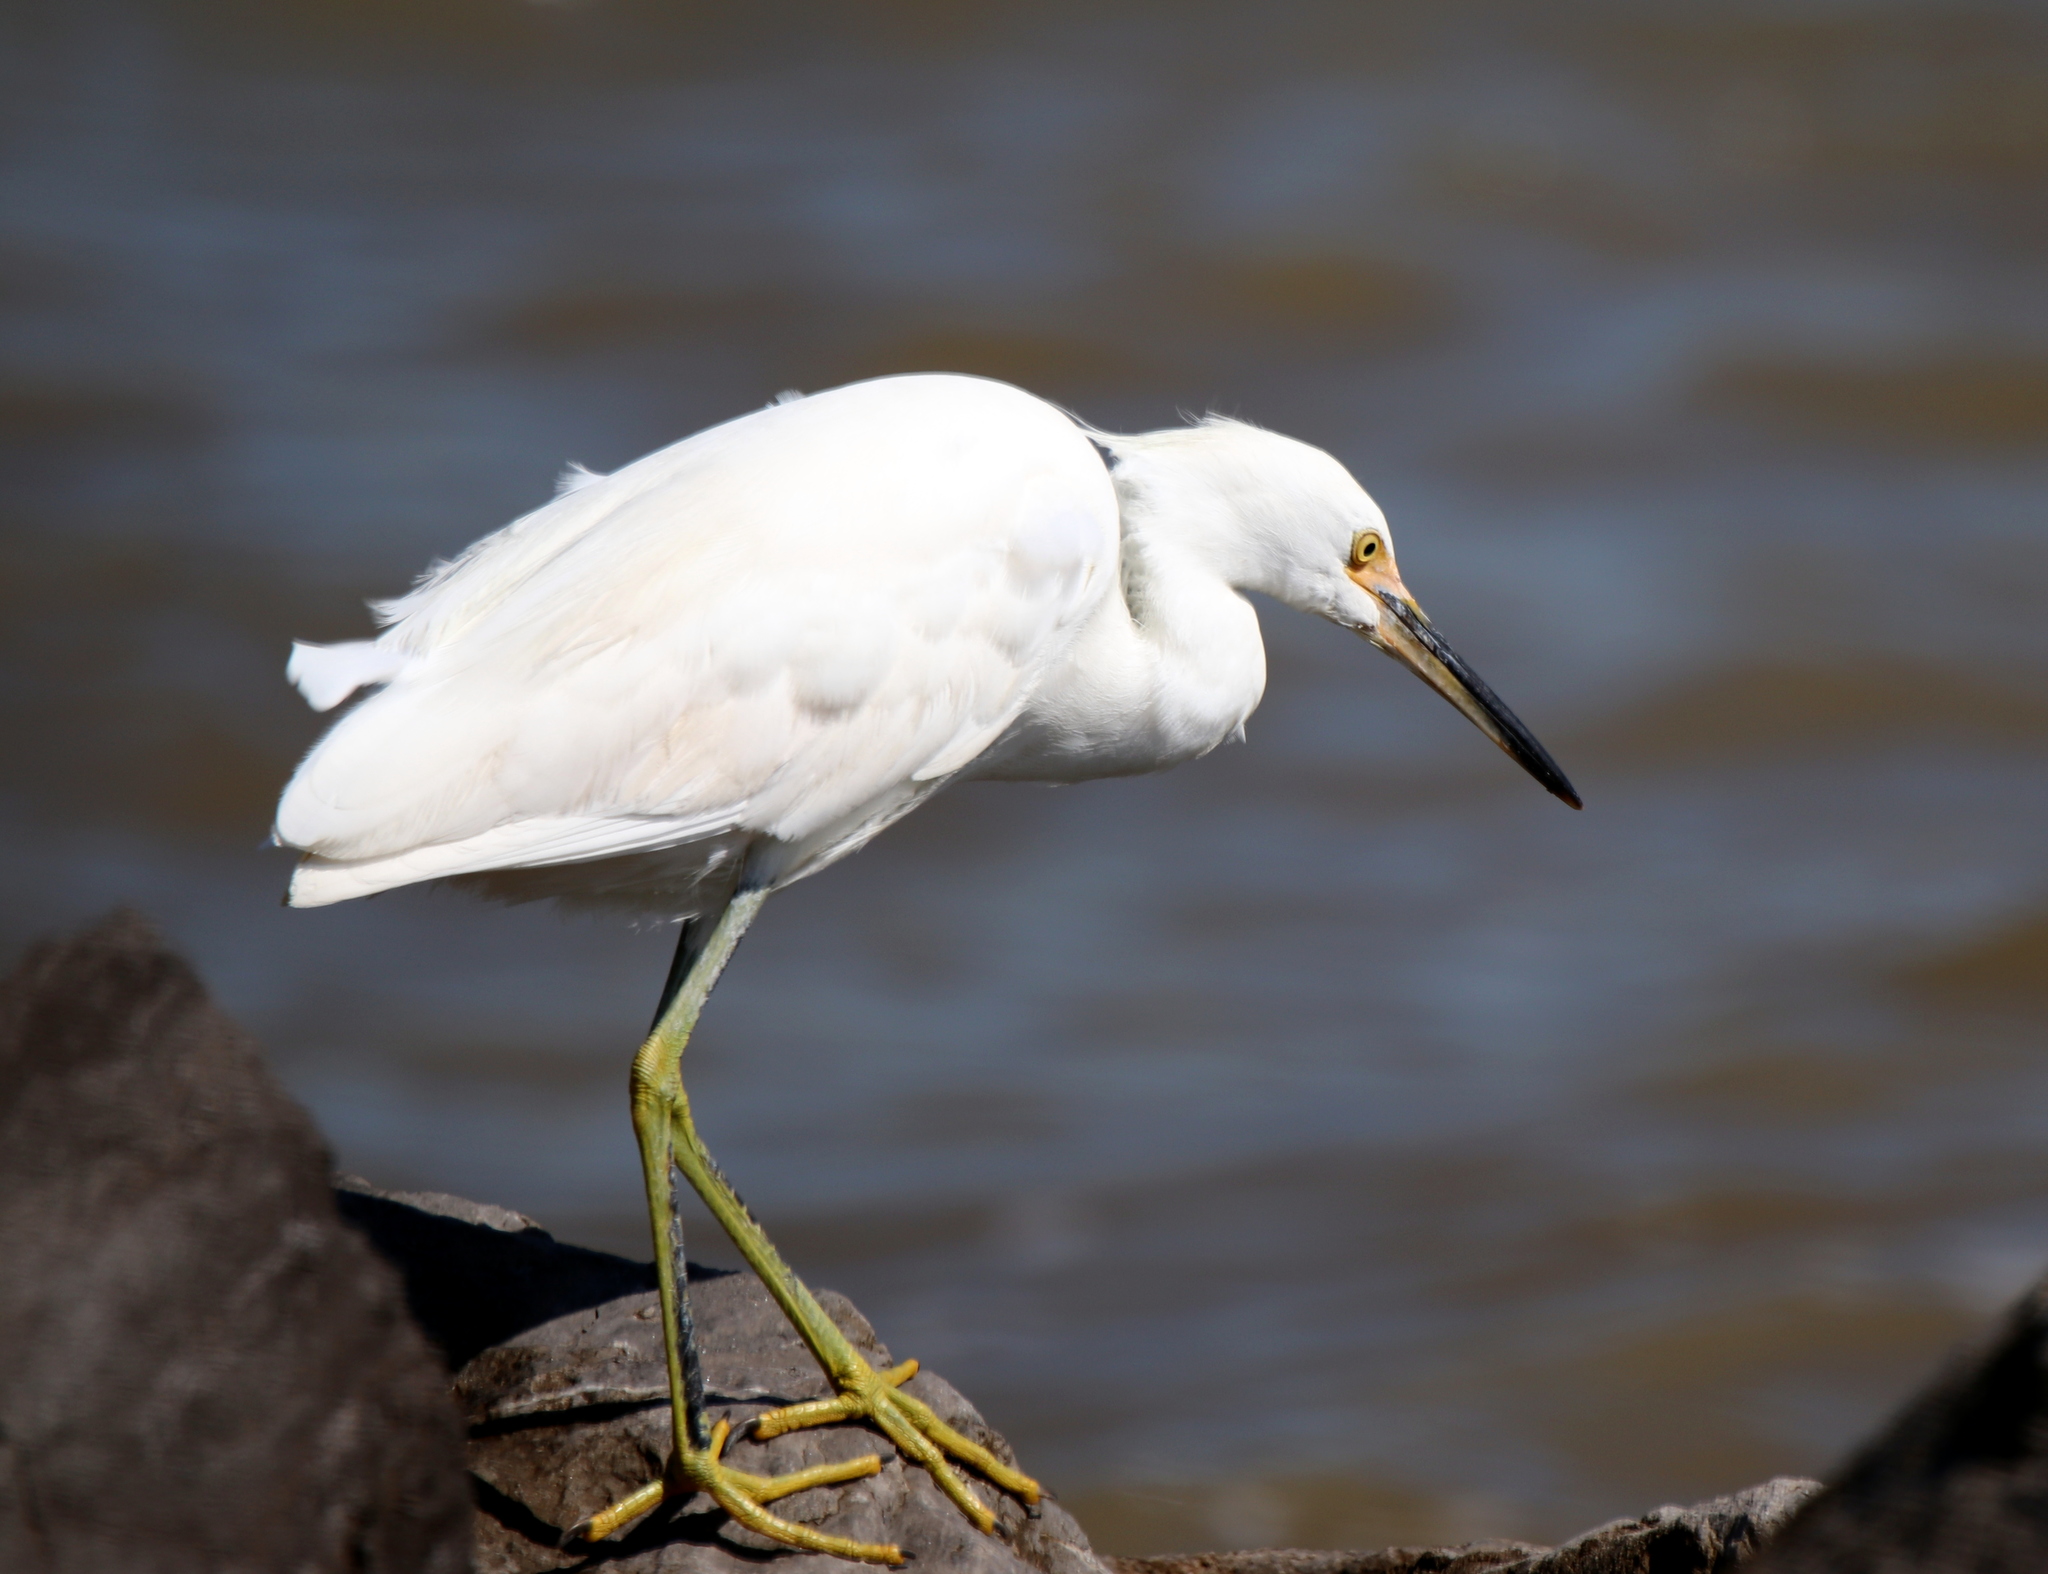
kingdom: Animalia
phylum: Chordata
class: Aves
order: Pelecaniformes
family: Ardeidae
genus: Egretta
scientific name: Egretta thula
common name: Snowy egret
